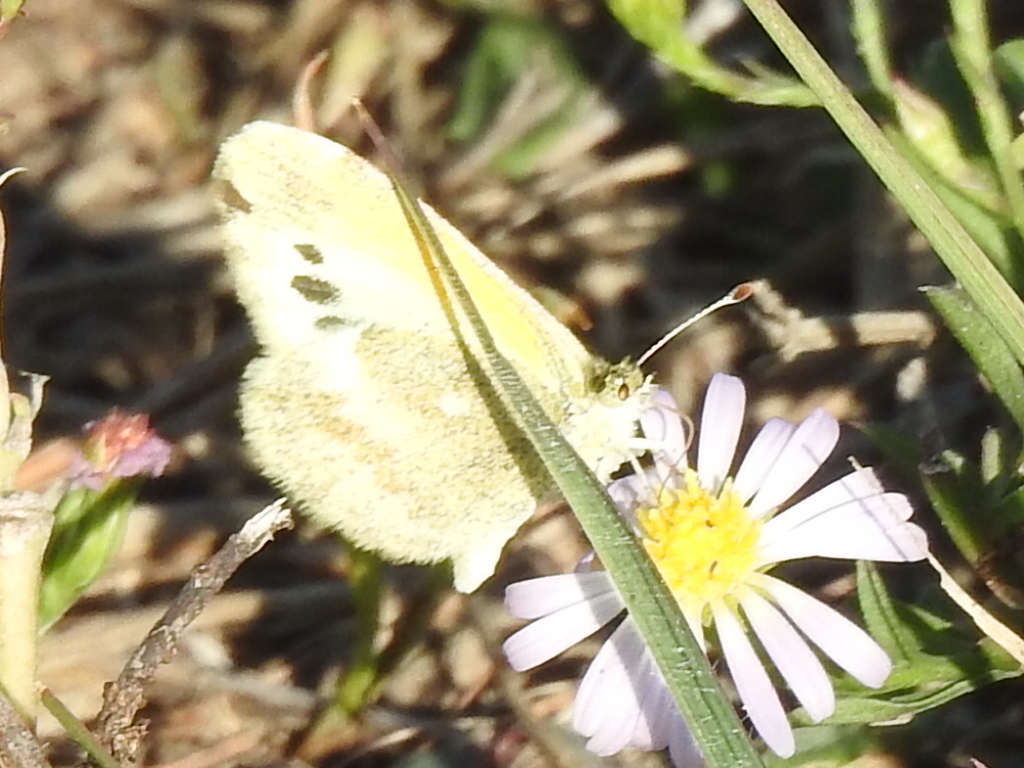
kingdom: Animalia
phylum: Arthropoda
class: Insecta
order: Lepidoptera
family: Pieridae
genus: Nathalis
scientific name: Nathalis iole
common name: Dainty sulphur
